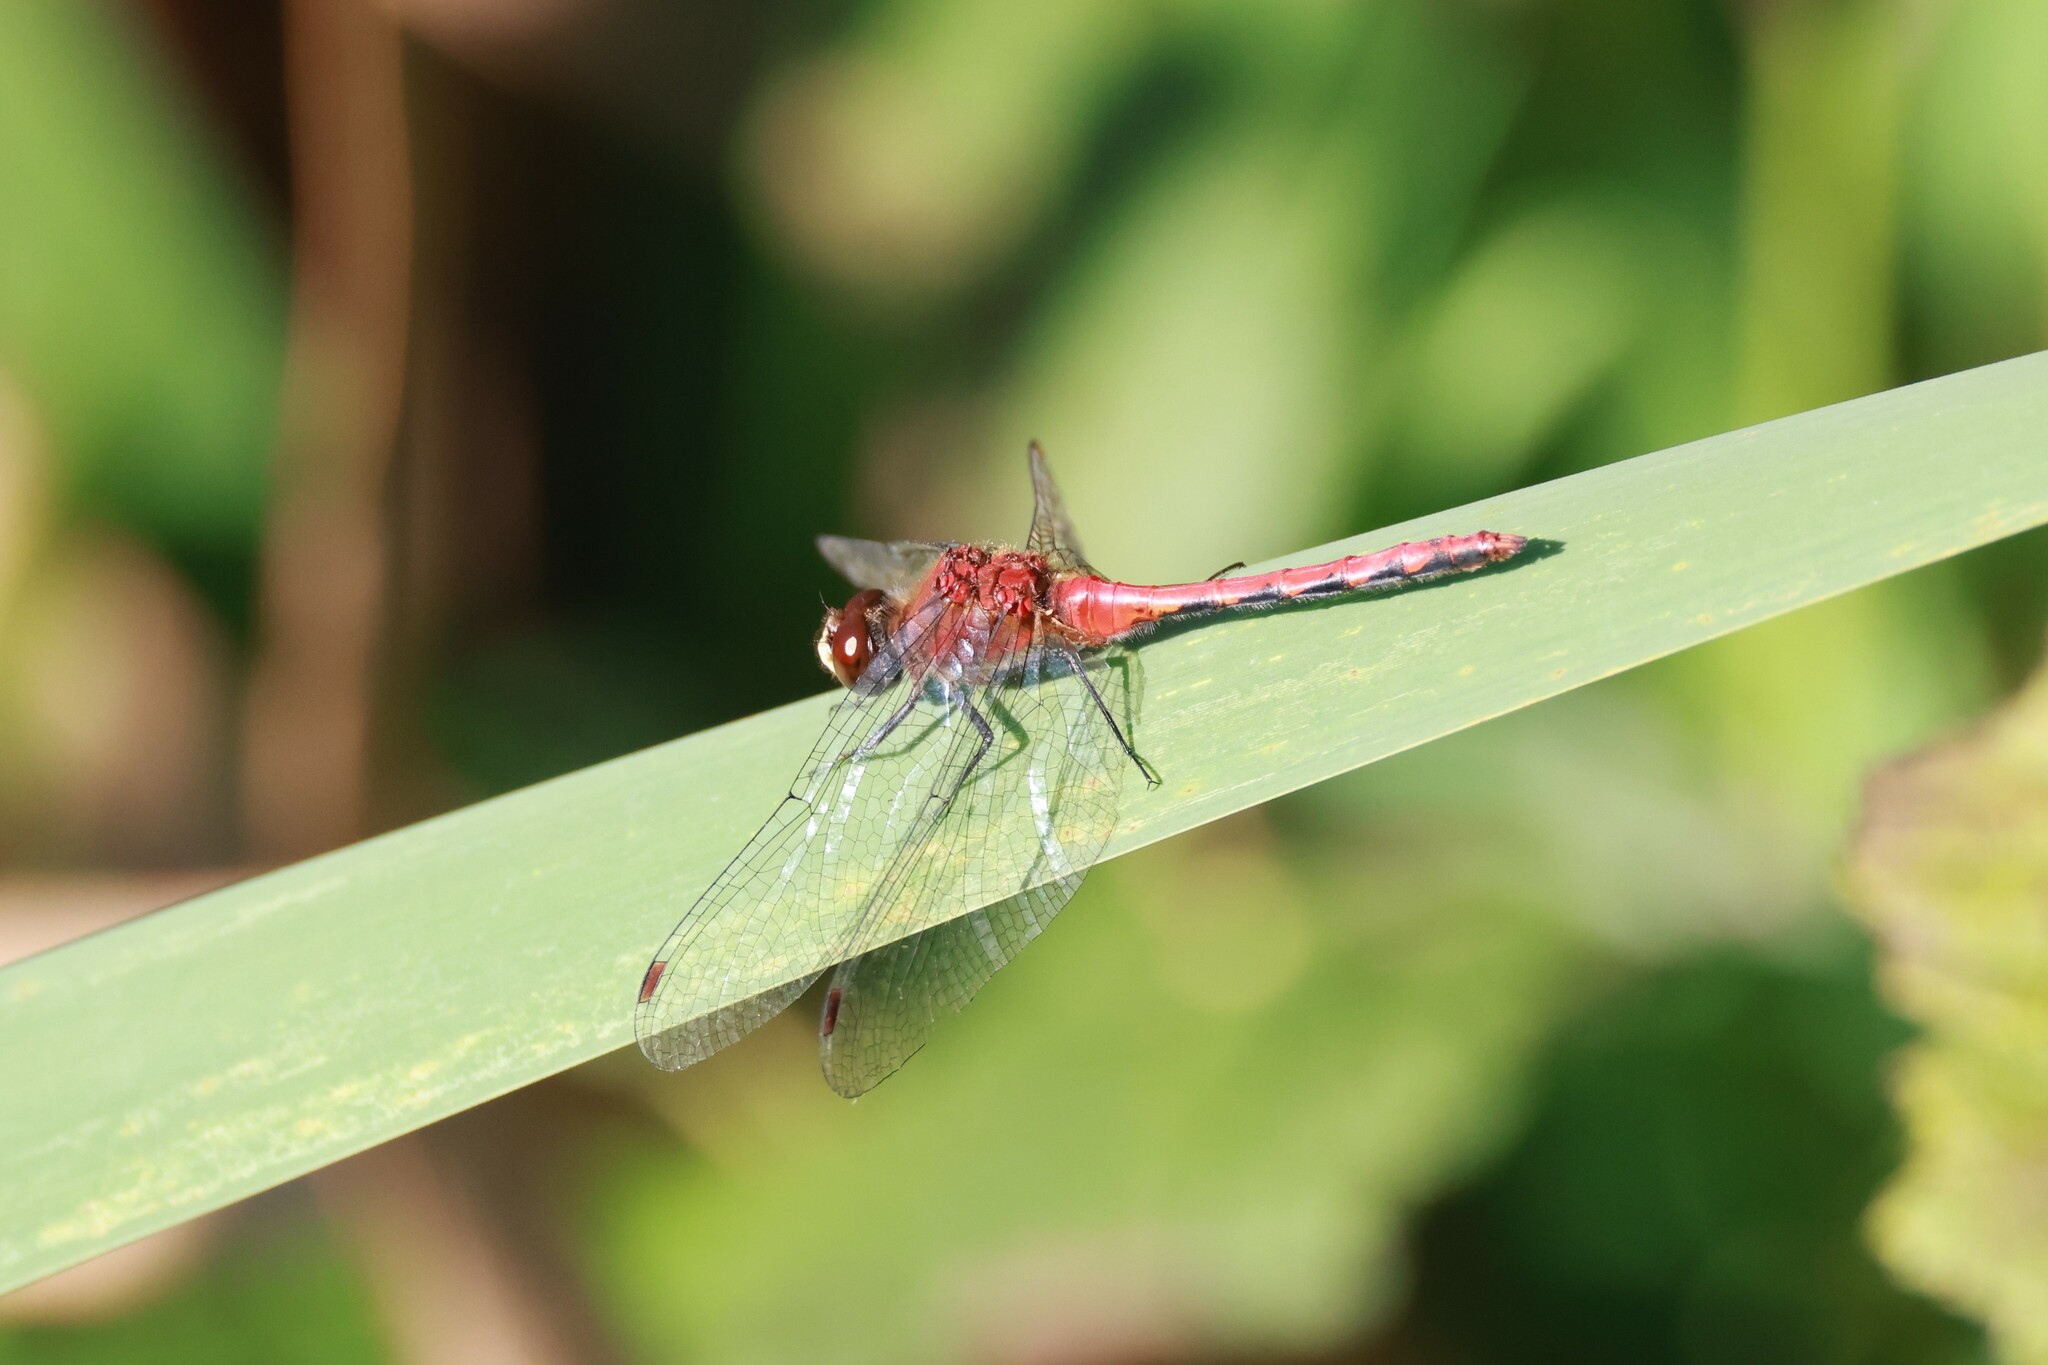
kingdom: Animalia
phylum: Arthropoda
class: Insecta
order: Odonata
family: Libellulidae
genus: Sympetrum
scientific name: Sympetrum obtrusum
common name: White-faced meadowhawk
